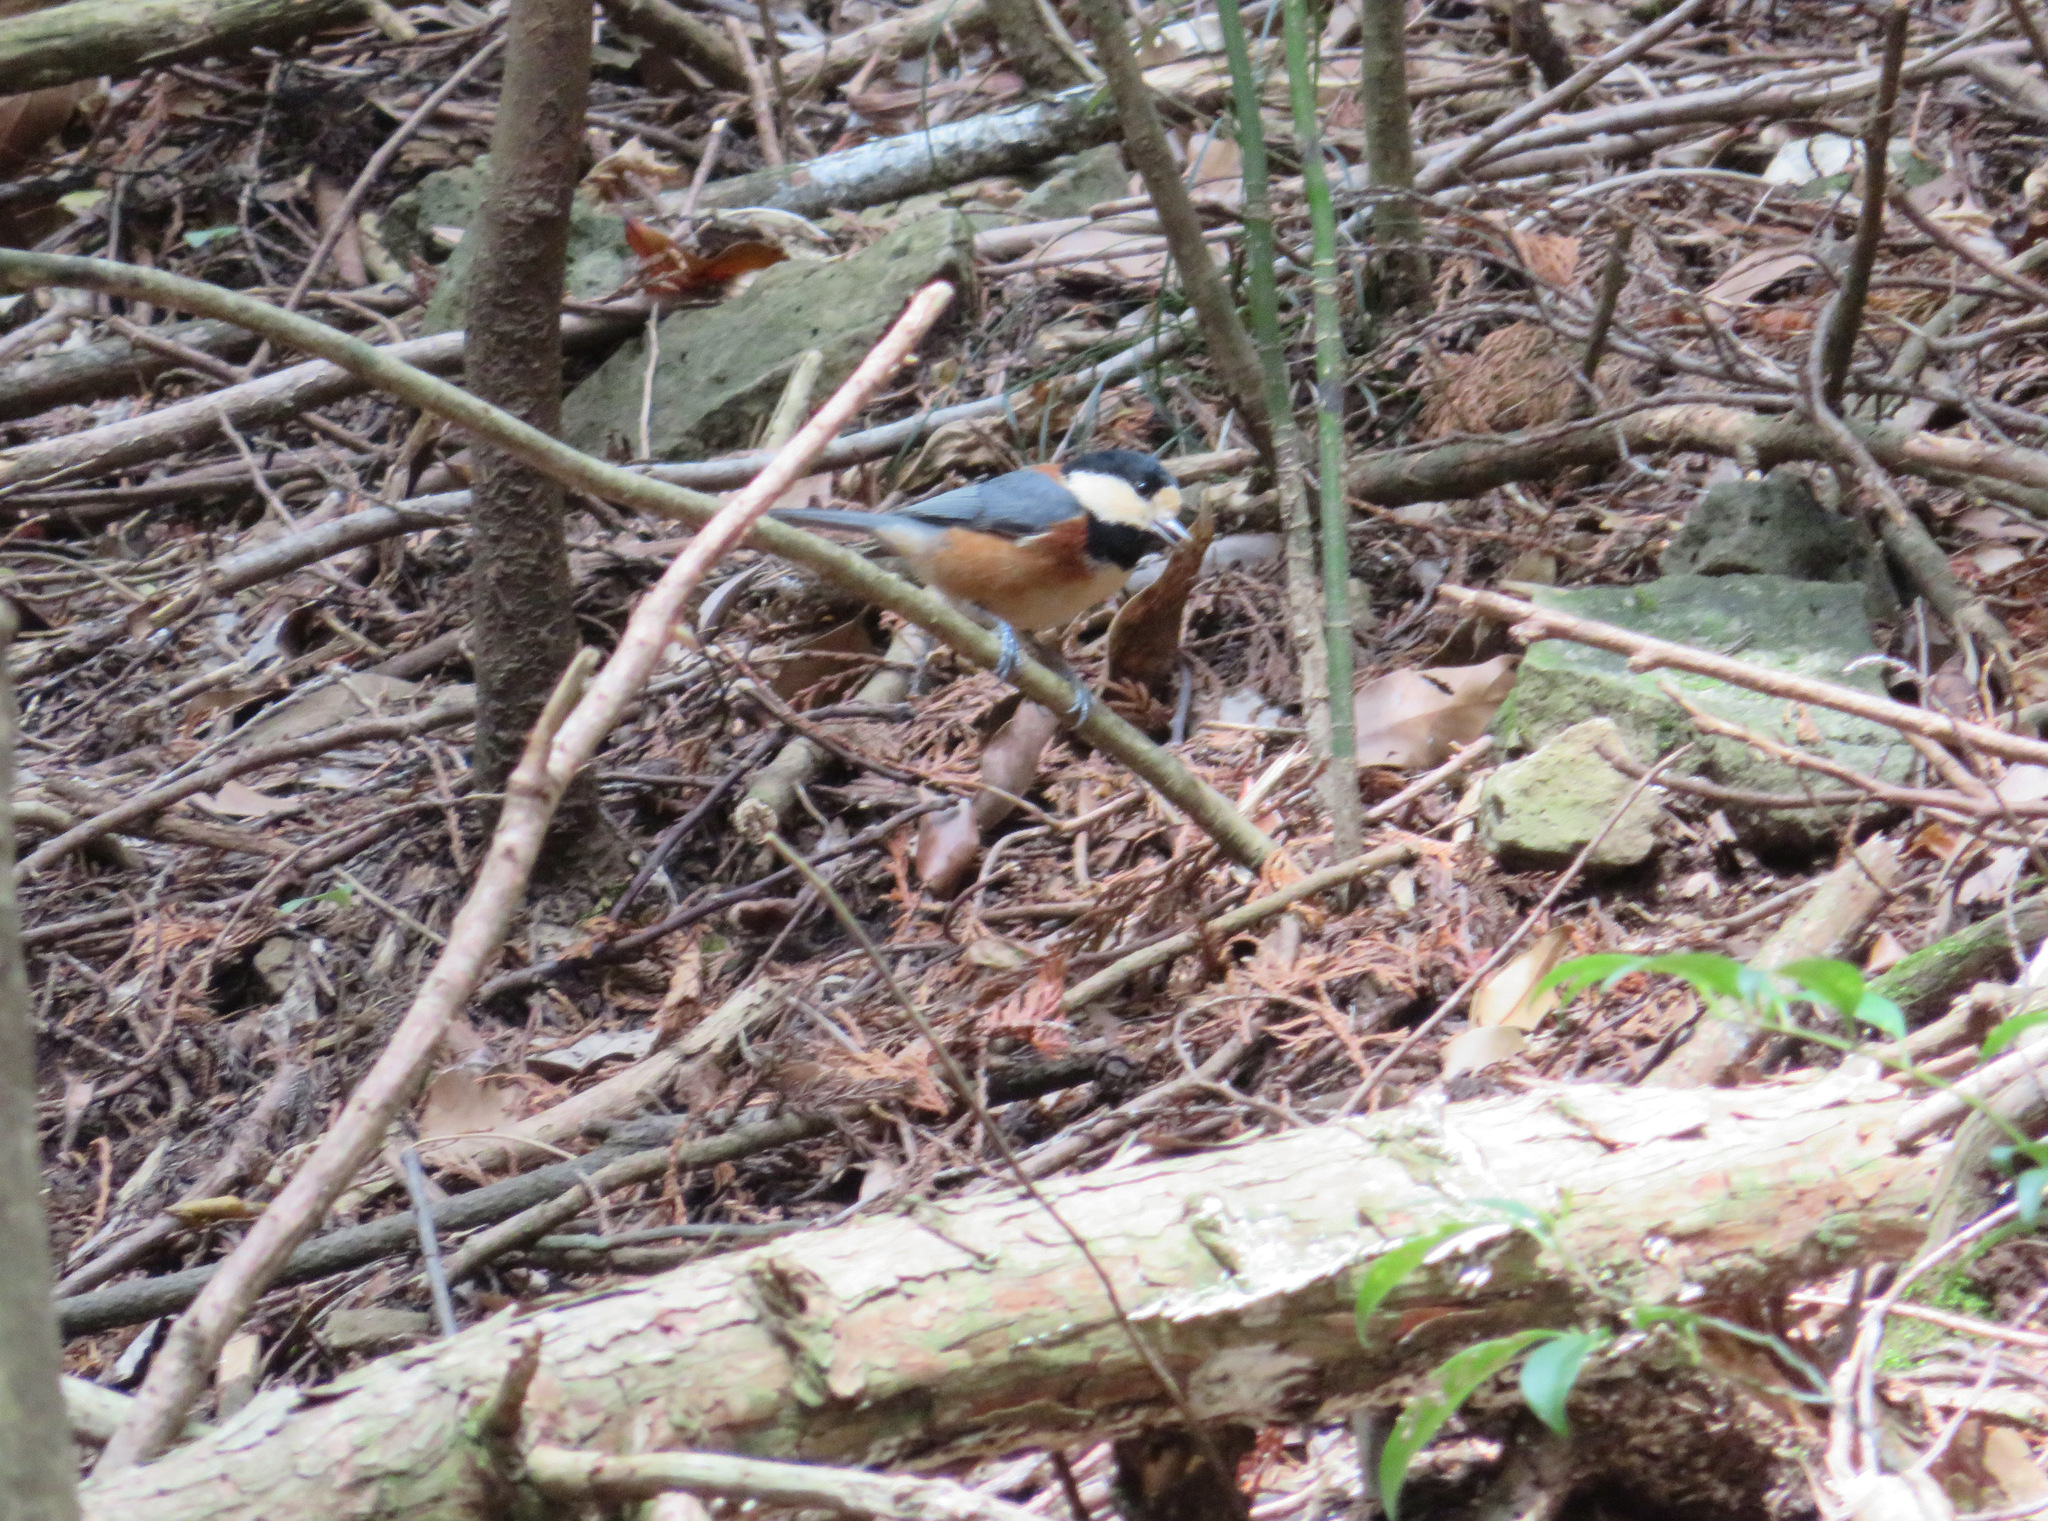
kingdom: Animalia
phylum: Chordata
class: Aves
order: Passeriformes
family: Paridae
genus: Poecile
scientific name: Poecile varius
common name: Varied tit
